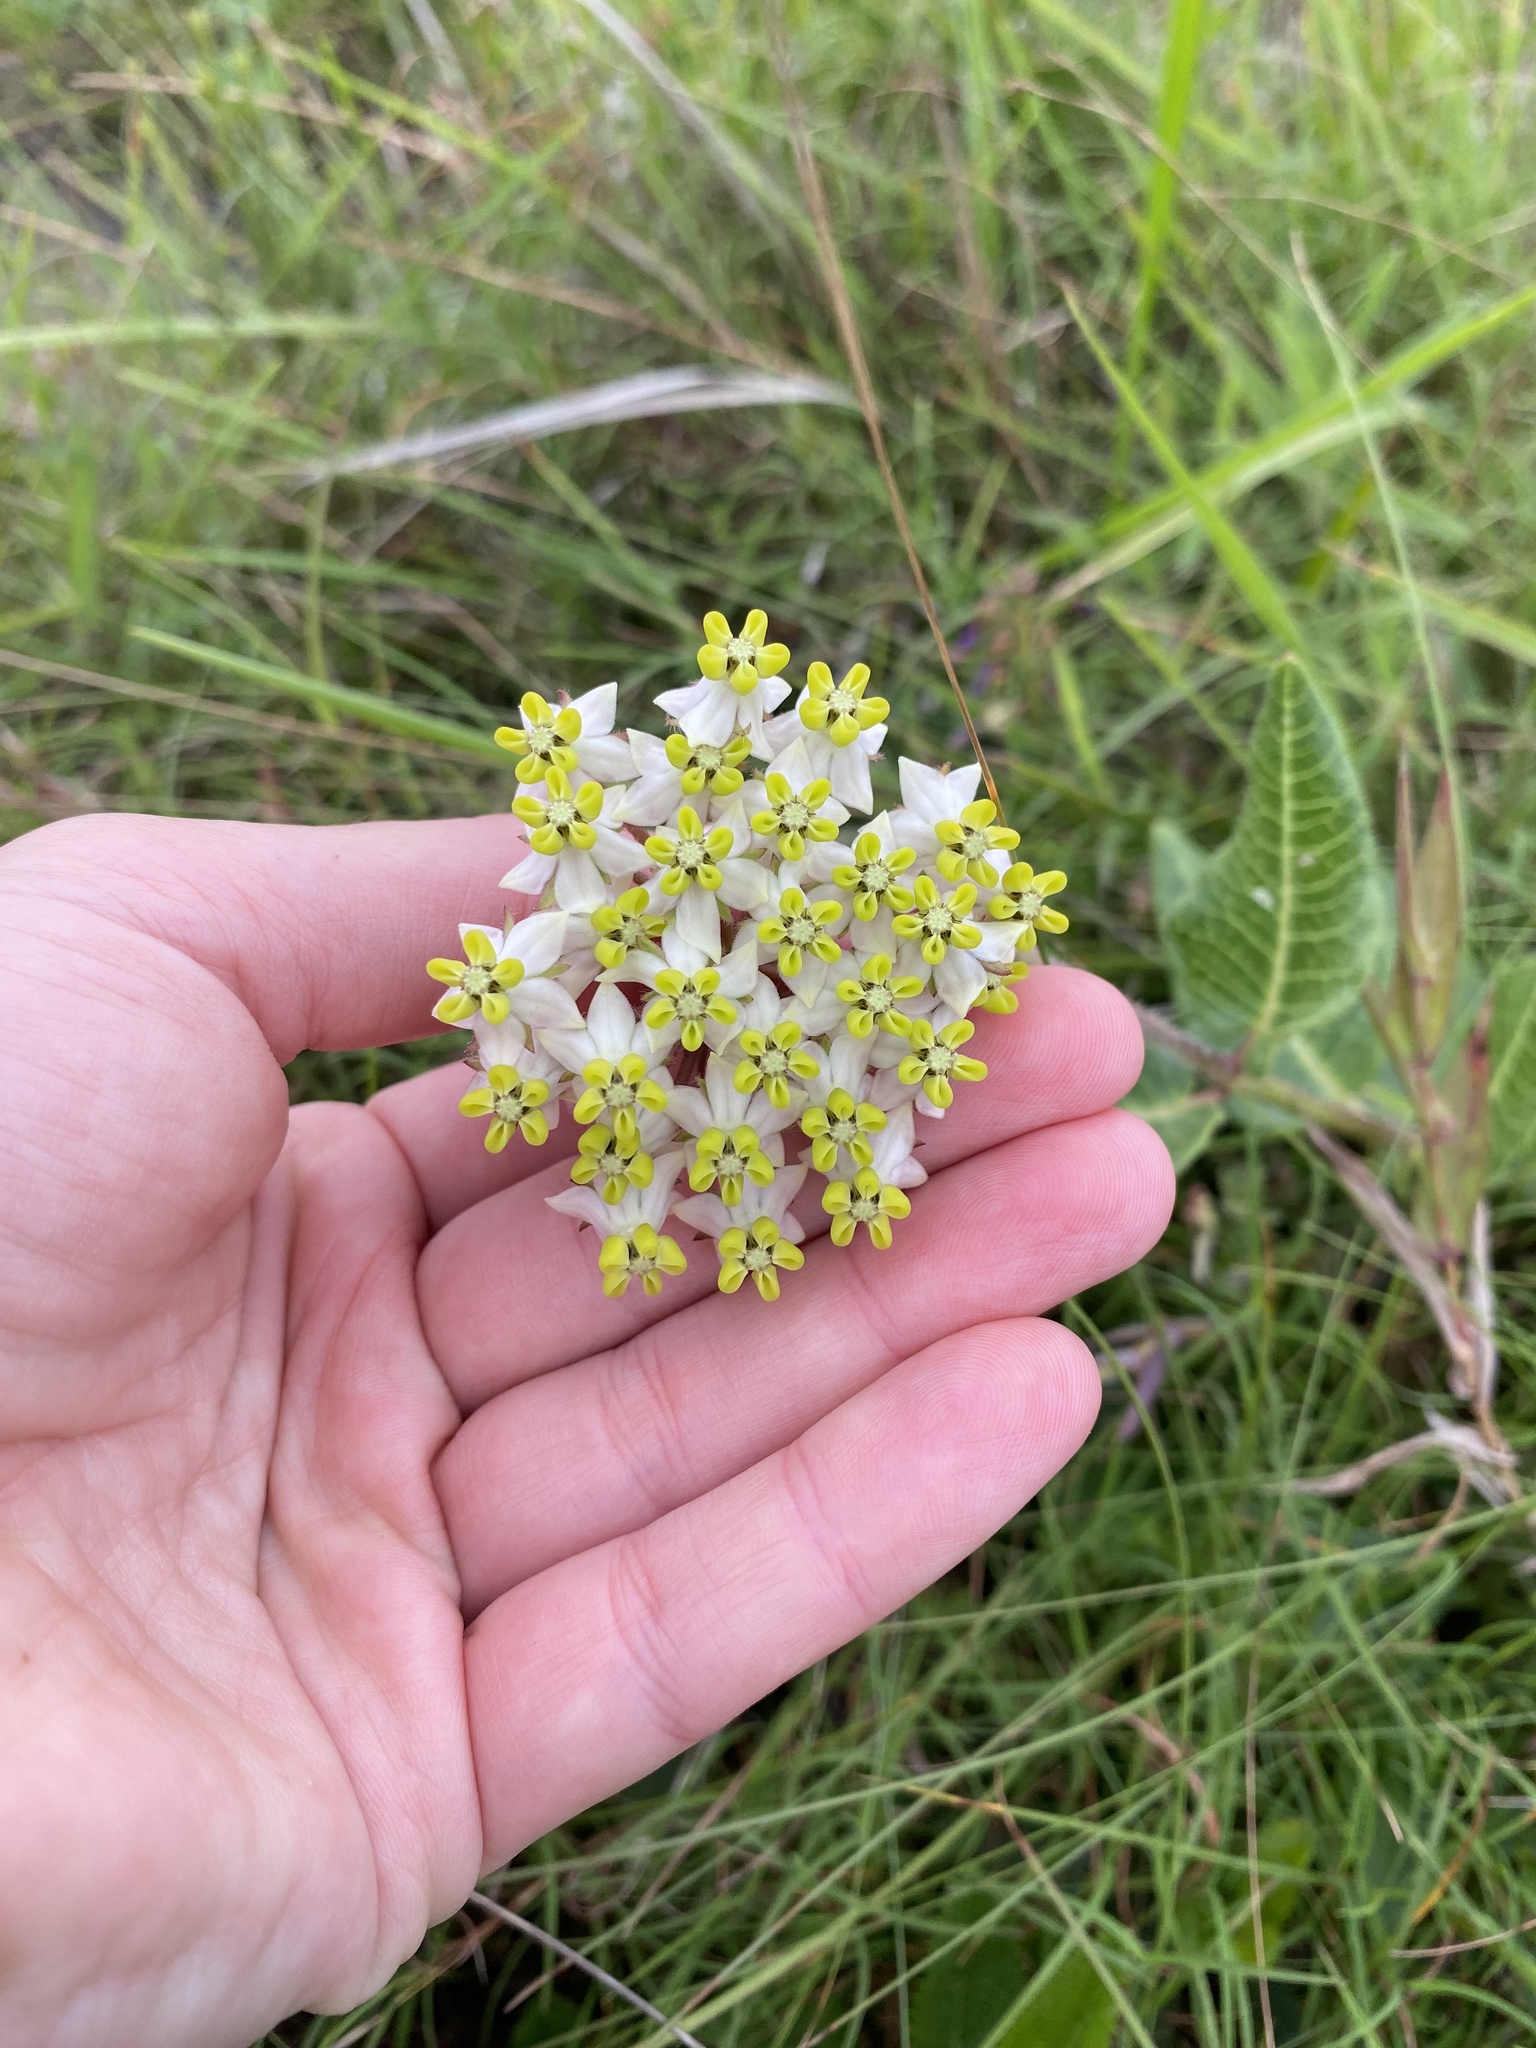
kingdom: Plantae
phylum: Tracheophyta
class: Magnoliopsida
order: Gentianales
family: Apocynaceae
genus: Asclepias
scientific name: Asclepias albens
